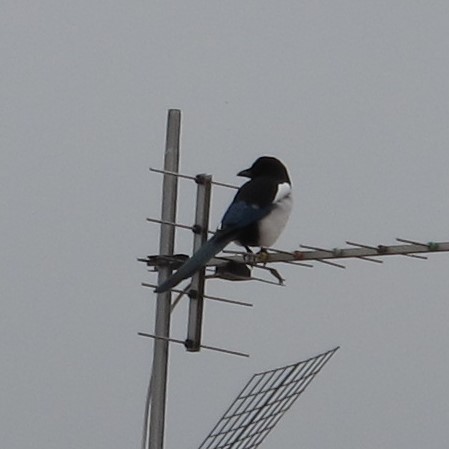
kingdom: Animalia
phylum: Chordata
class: Aves
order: Passeriformes
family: Corvidae
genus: Pica
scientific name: Pica pica
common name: Eurasian magpie
